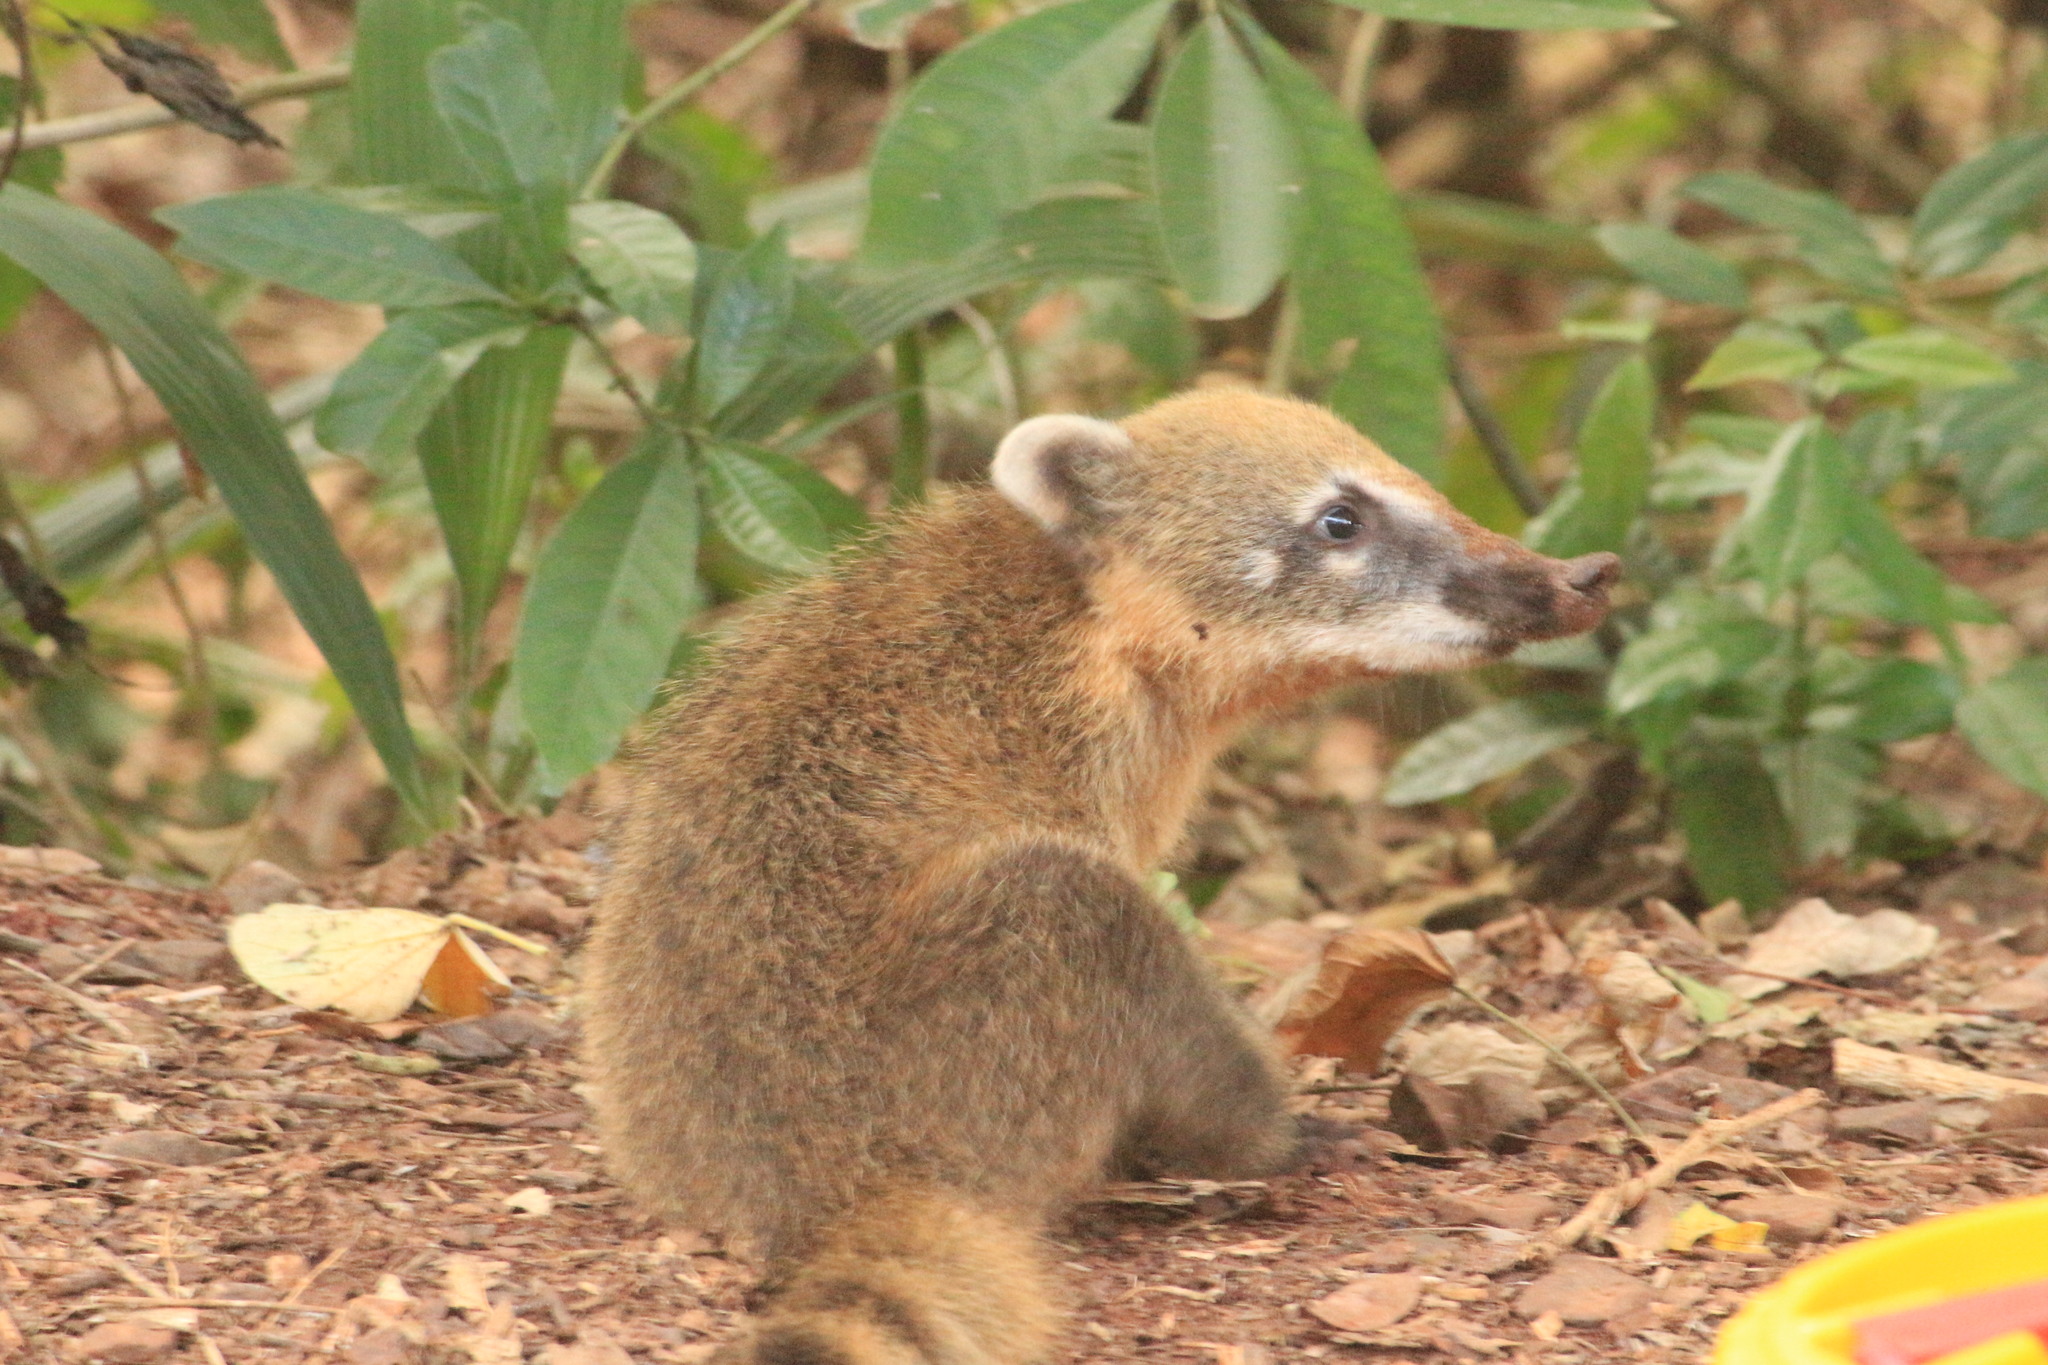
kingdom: Animalia
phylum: Chordata
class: Mammalia
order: Carnivora
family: Procyonidae
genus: Nasua
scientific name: Nasua nasua
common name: South american coati
